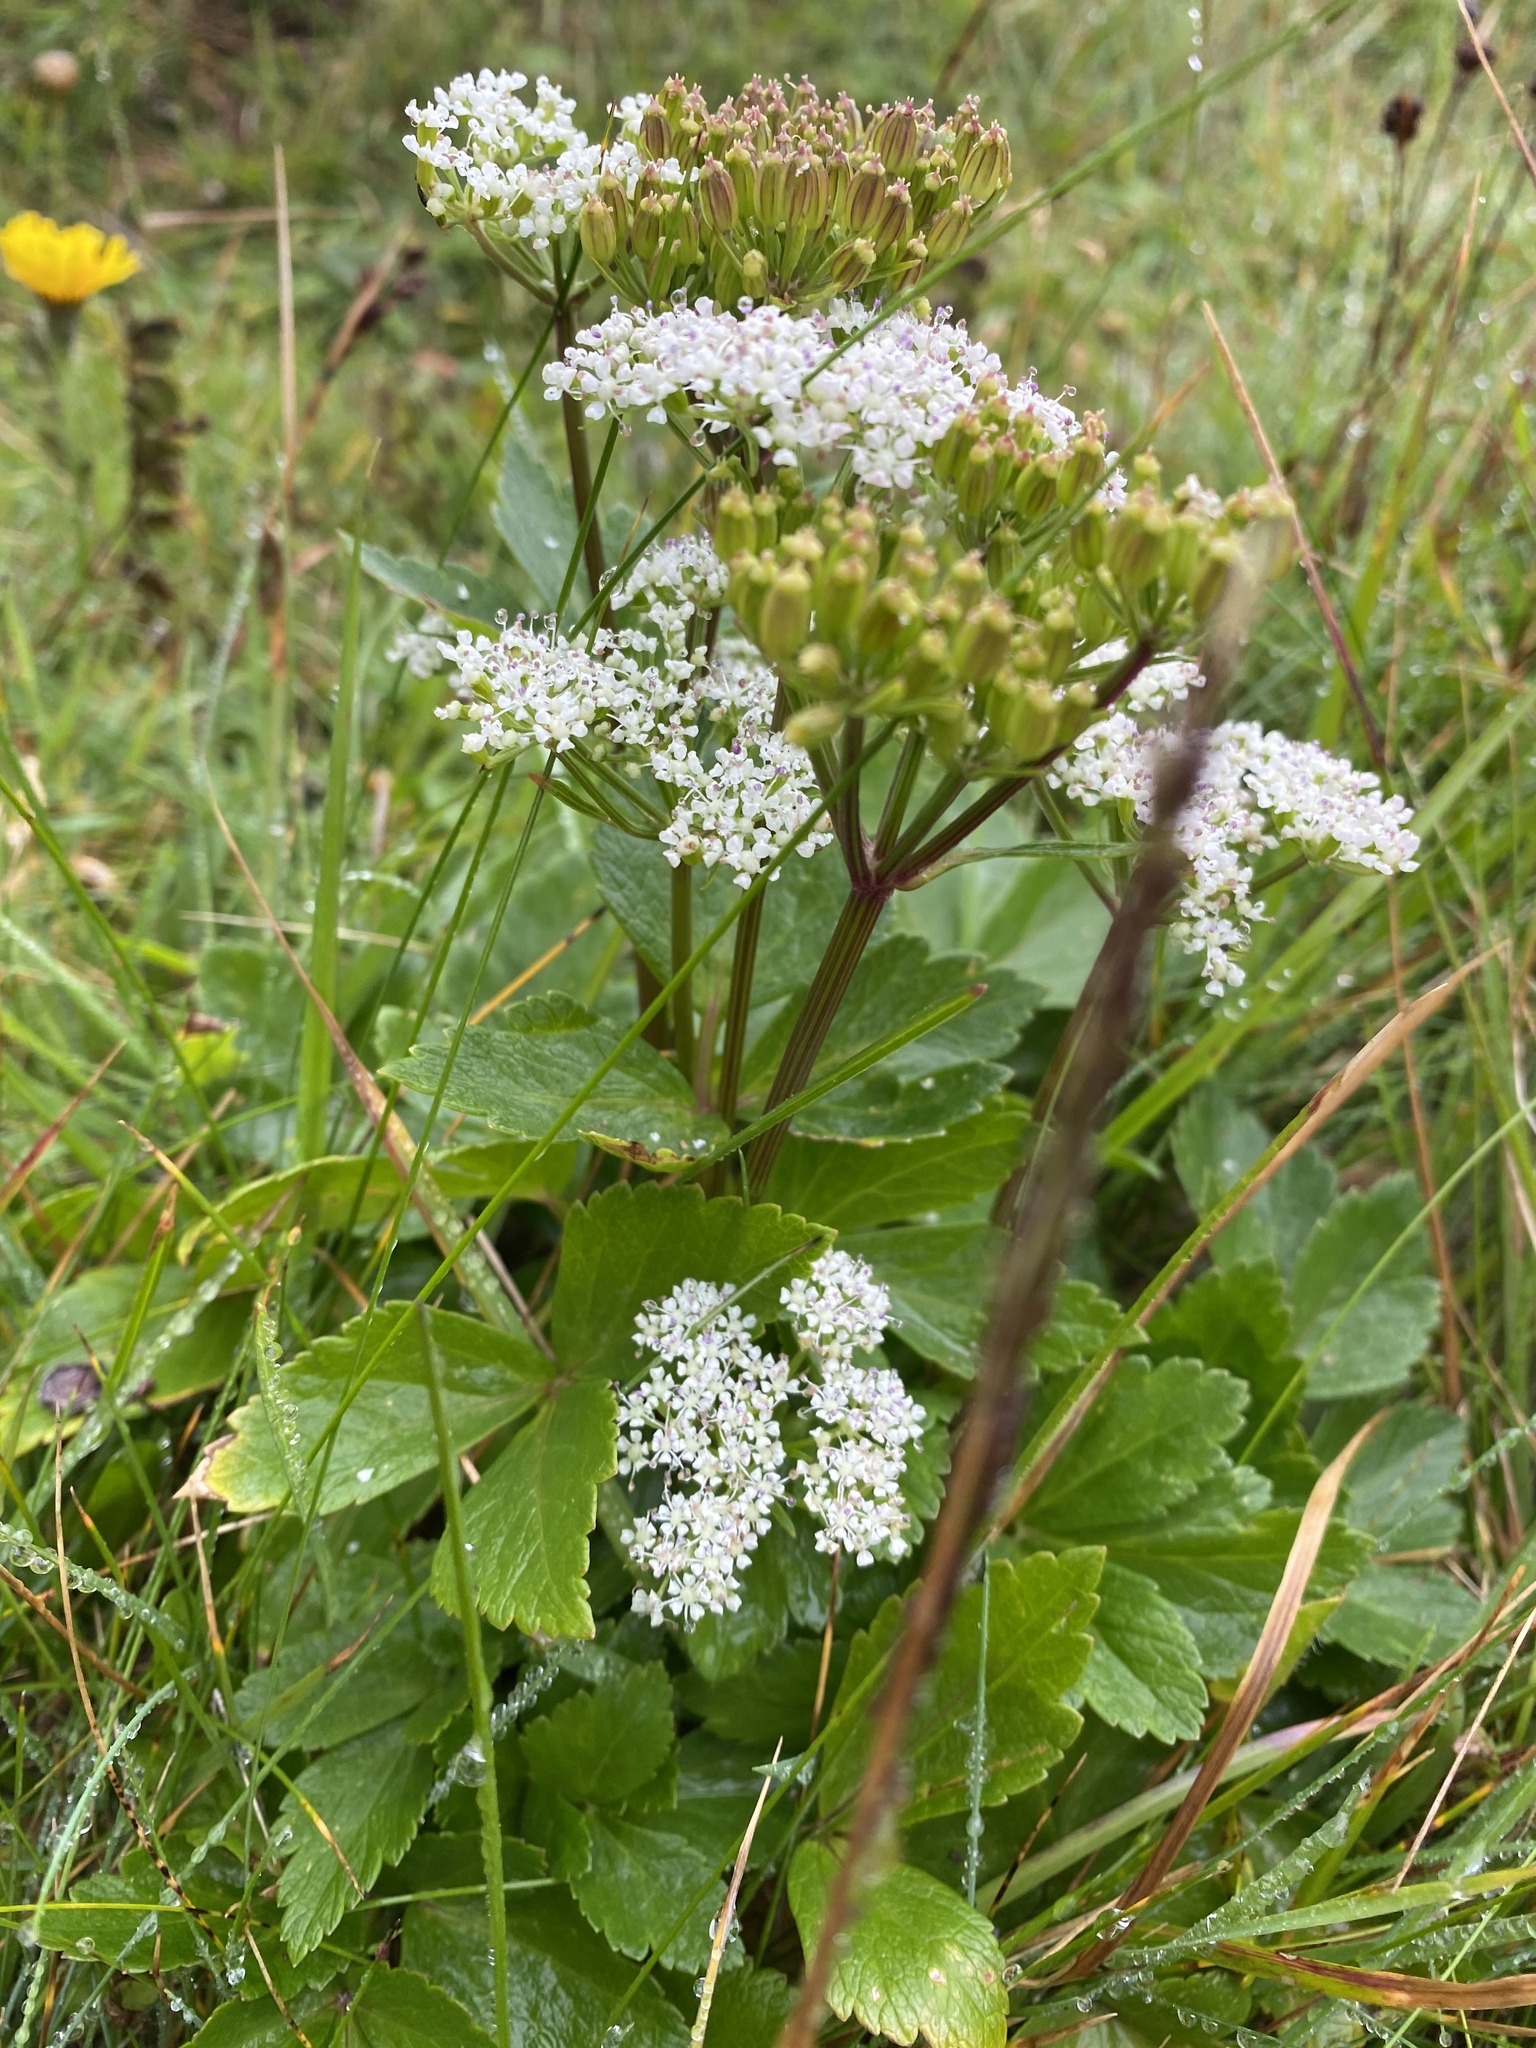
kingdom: Plantae
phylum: Tracheophyta
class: Magnoliopsida
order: Apiales
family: Apiaceae
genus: Ligusticum
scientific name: Ligusticum scothicum
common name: Beach lovage
